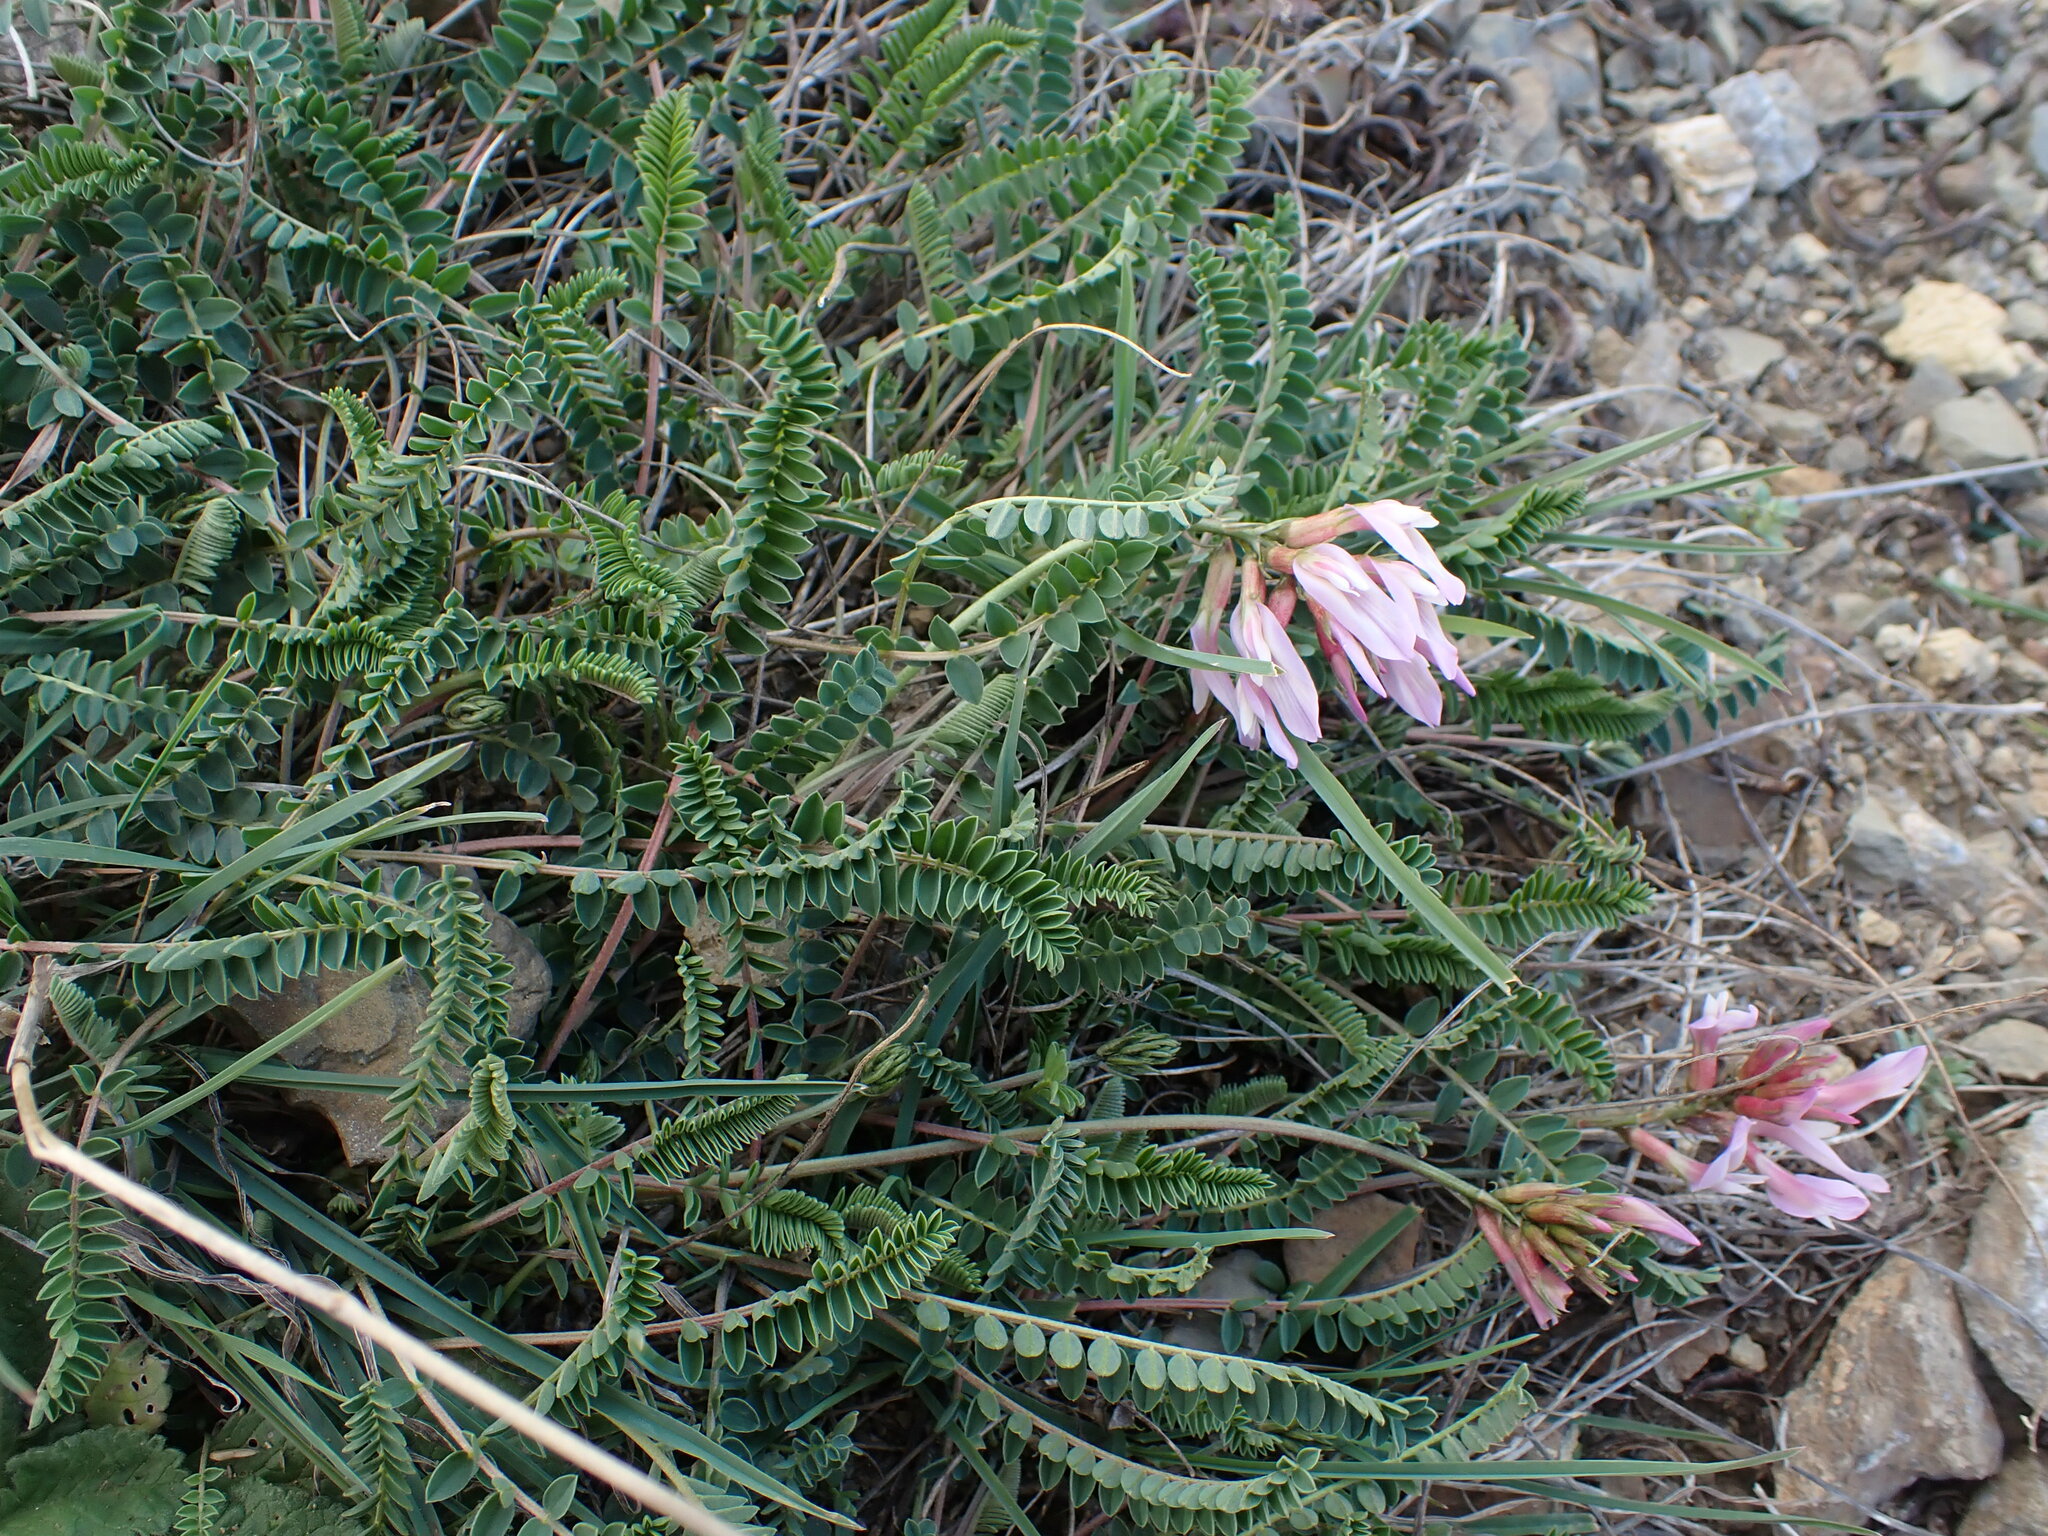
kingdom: Plantae
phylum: Tracheophyta
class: Magnoliopsida
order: Fabales
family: Fabaceae
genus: Astragalus
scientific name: Astragalus monspessulanus
